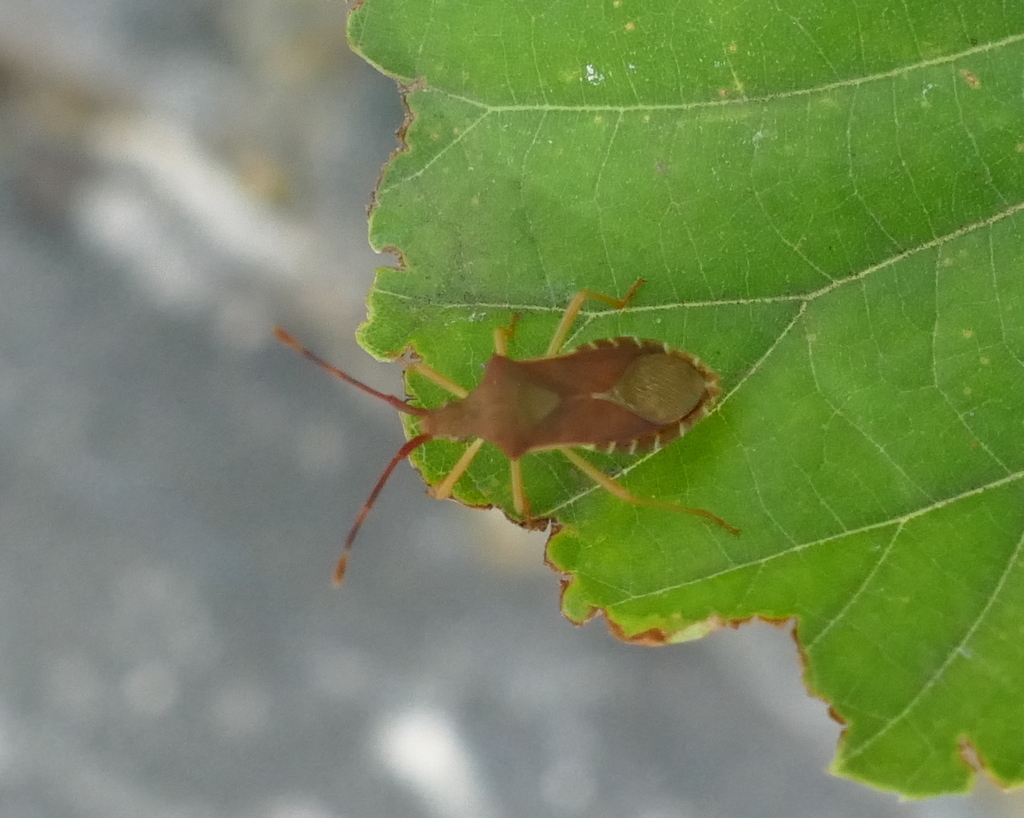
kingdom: Animalia
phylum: Arthropoda
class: Insecta
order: Hemiptera
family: Coreidae
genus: Gonocerus
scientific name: Gonocerus acuteangulatus
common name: Box bug
